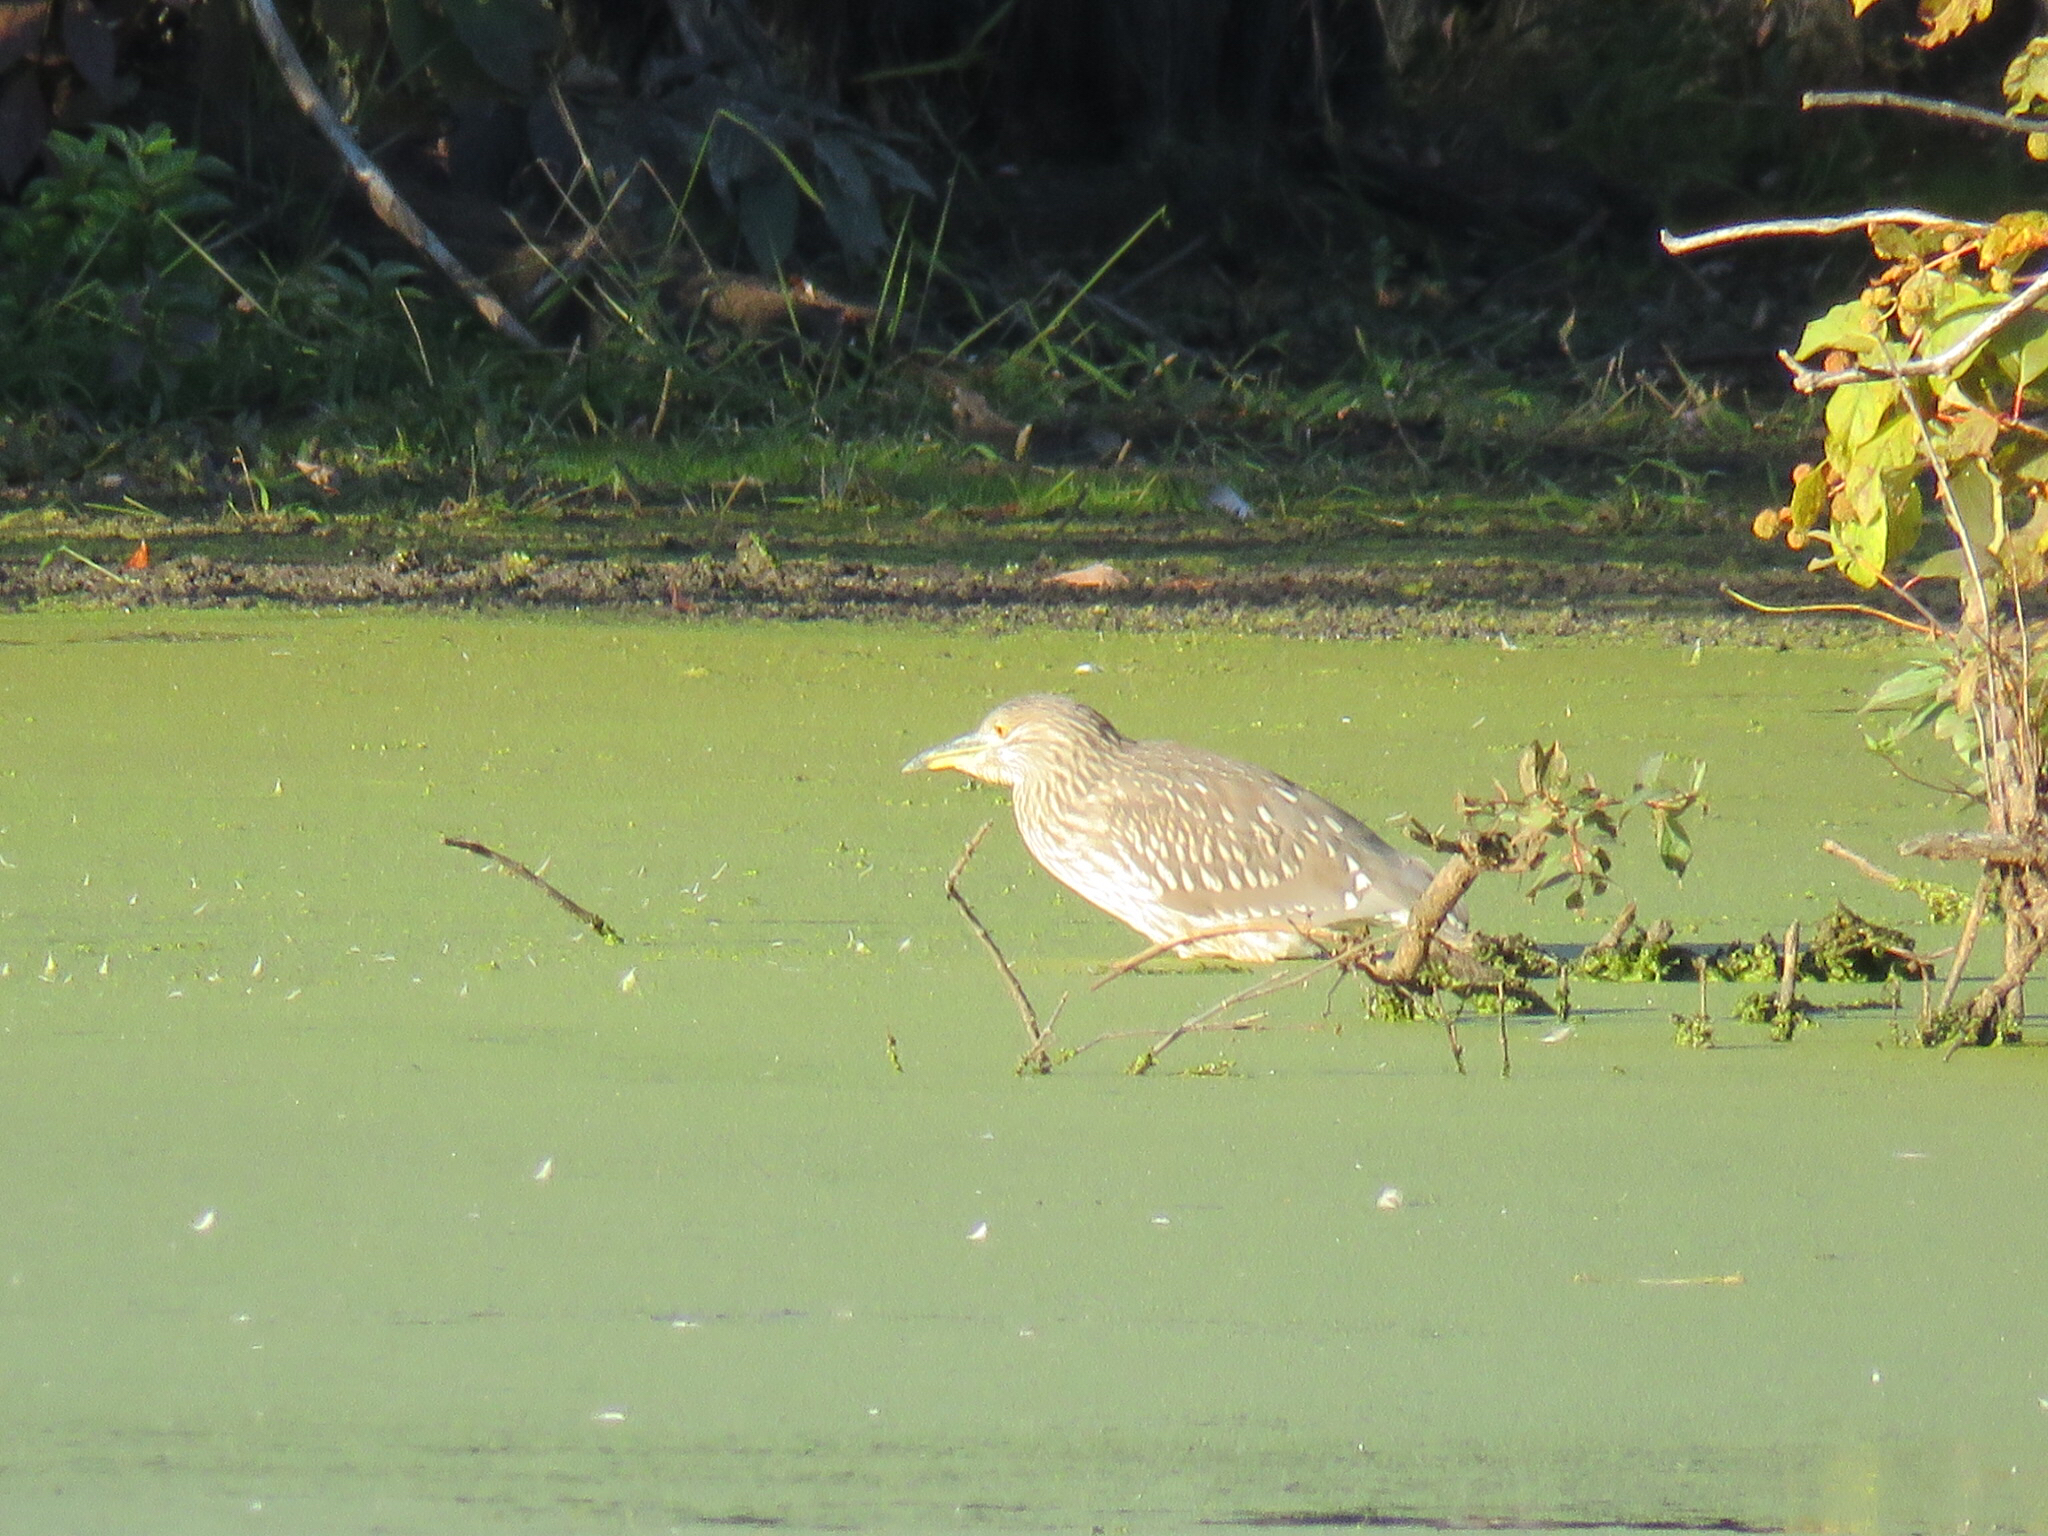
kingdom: Animalia
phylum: Chordata
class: Aves
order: Pelecaniformes
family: Ardeidae
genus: Nycticorax
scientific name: Nycticorax nycticorax
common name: Black-crowned night heron
